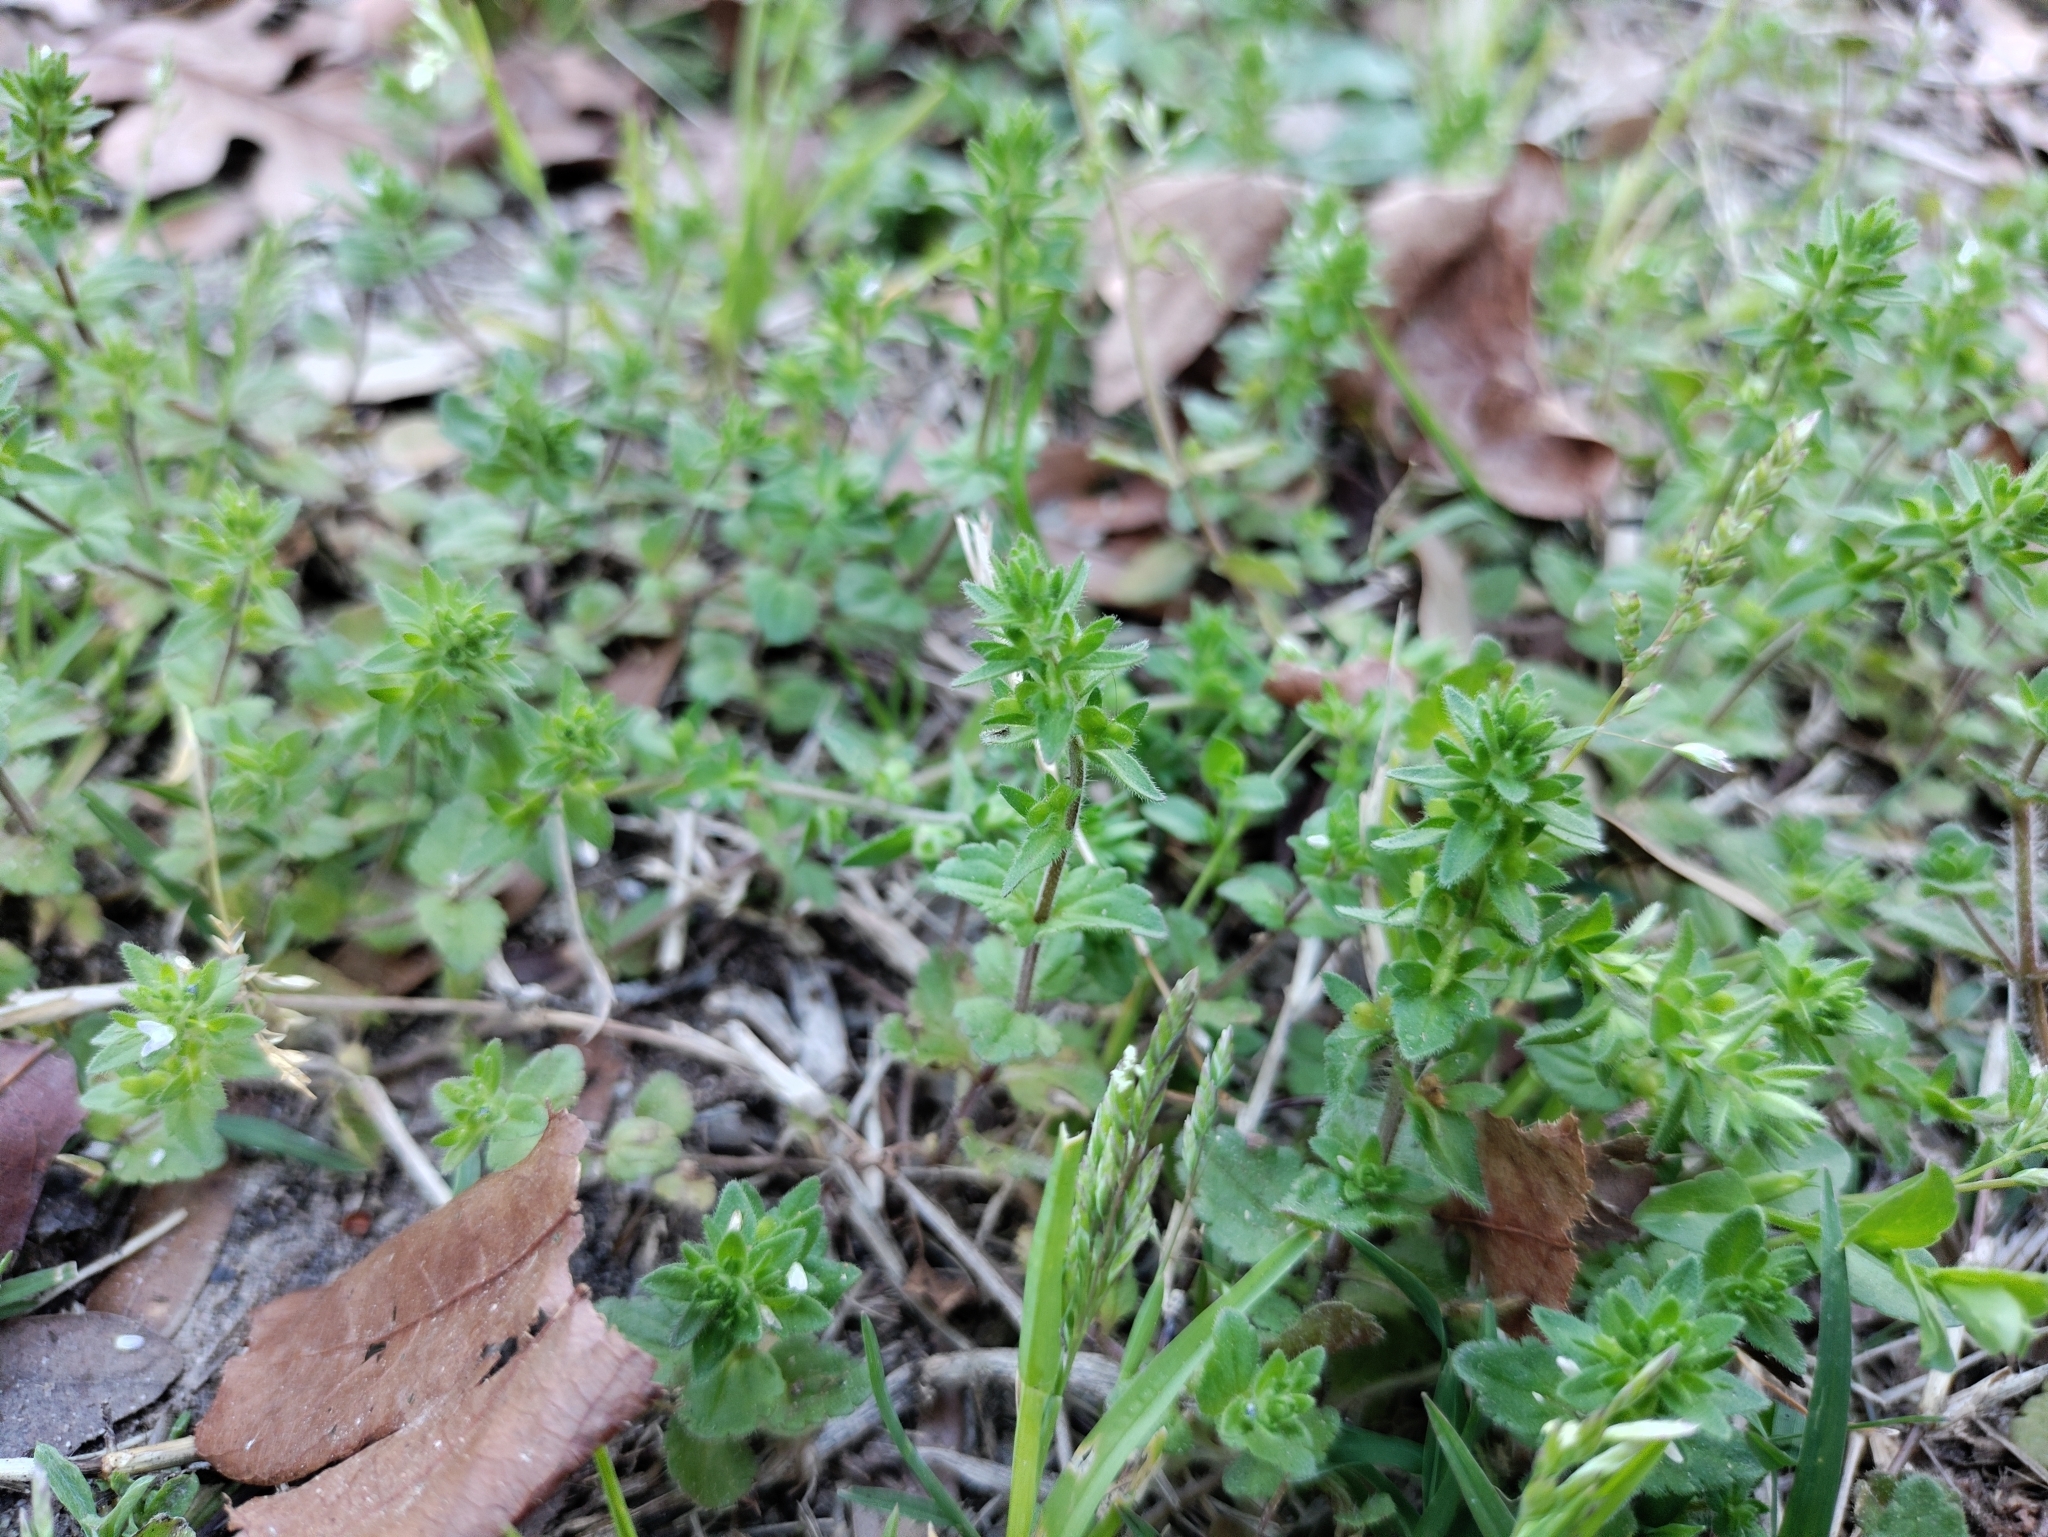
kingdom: Plantae
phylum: Tracheophyta
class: Magnoliopsida
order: Lamiales
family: Plantaginaceae
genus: Veronica
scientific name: Veronica arvensis
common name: Corn speedwell
